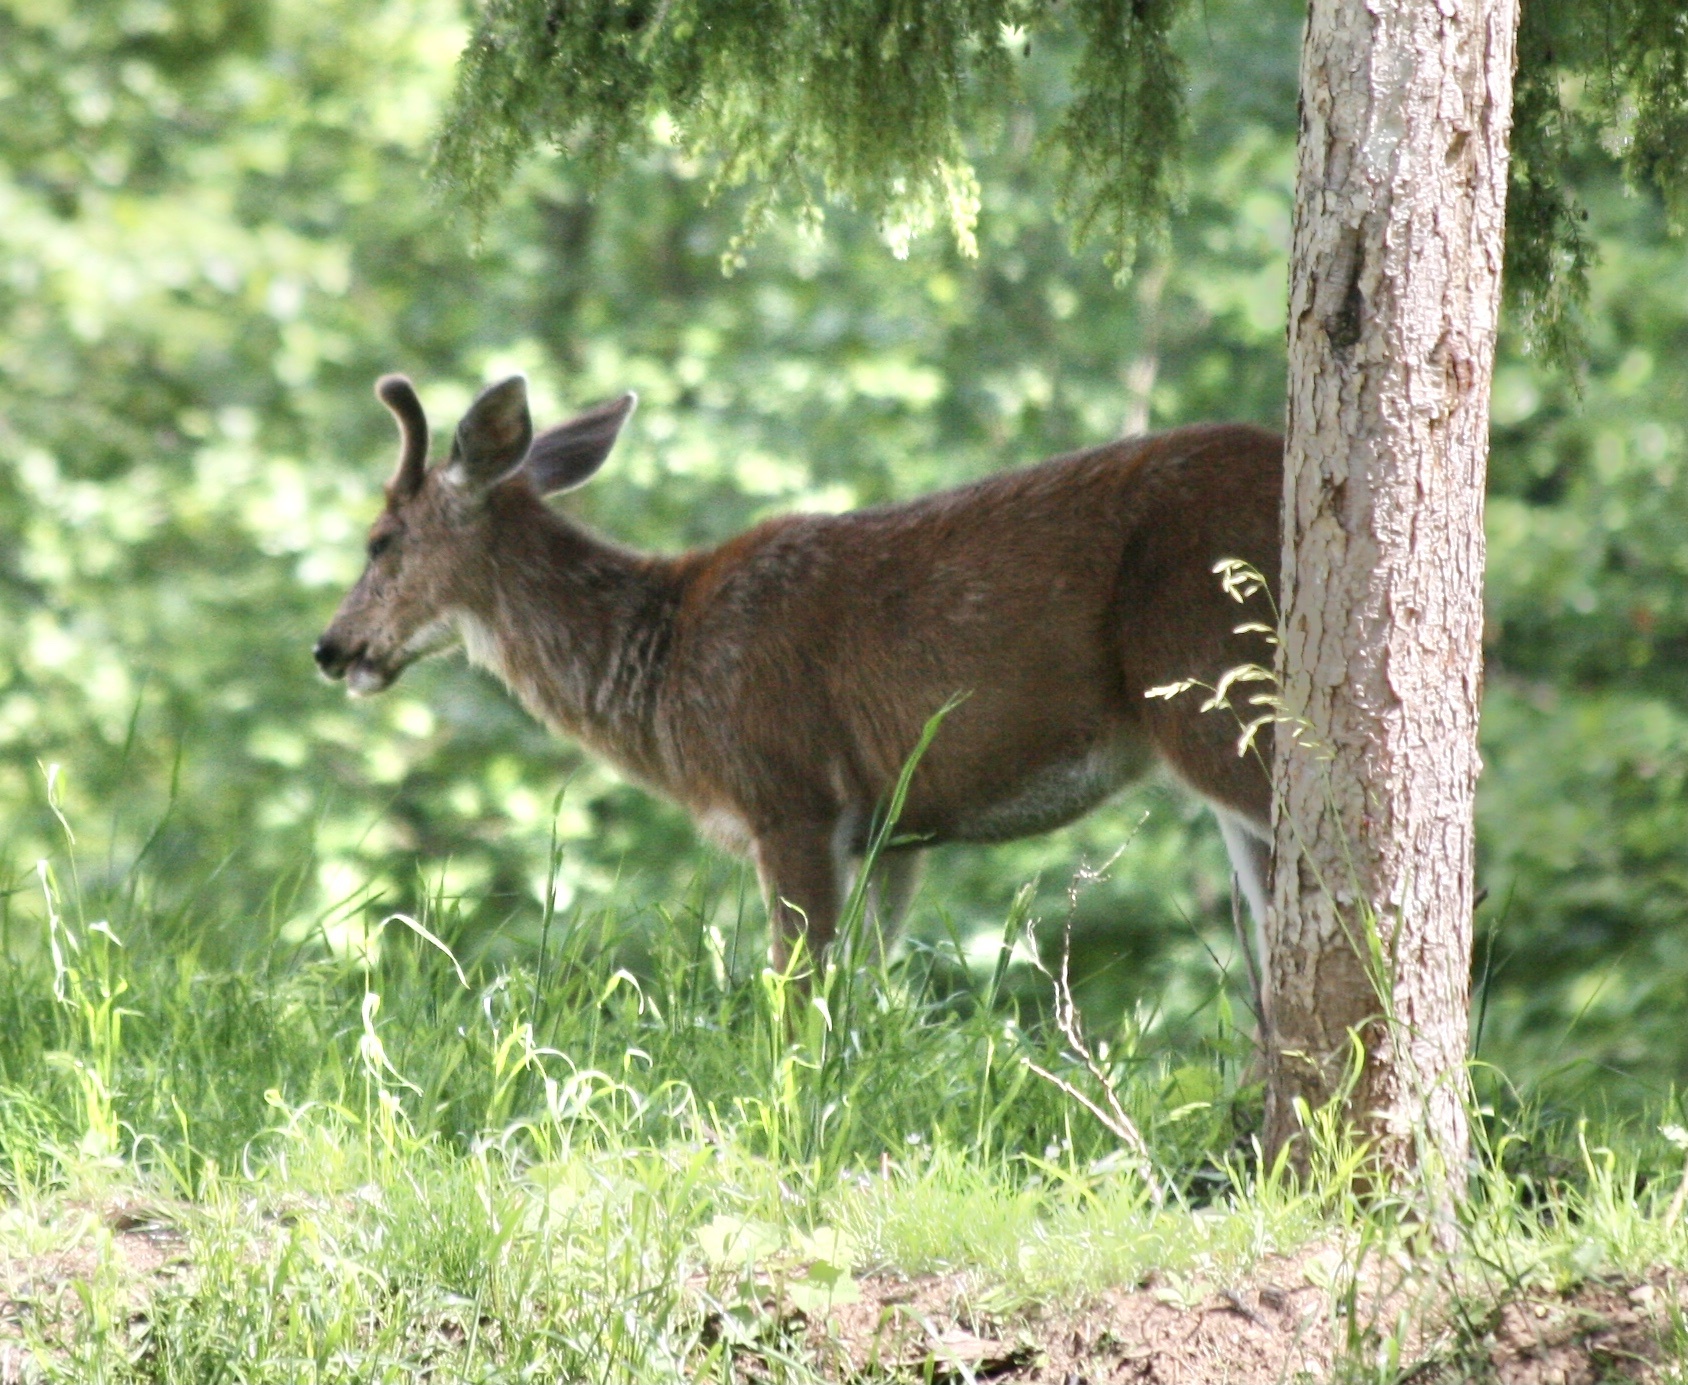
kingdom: Animalia
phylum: Chordata
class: Mammalia
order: Artiodactyla
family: Cervidae
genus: Odocoileus
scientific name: Odocoileus hemionus
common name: Mule deer
